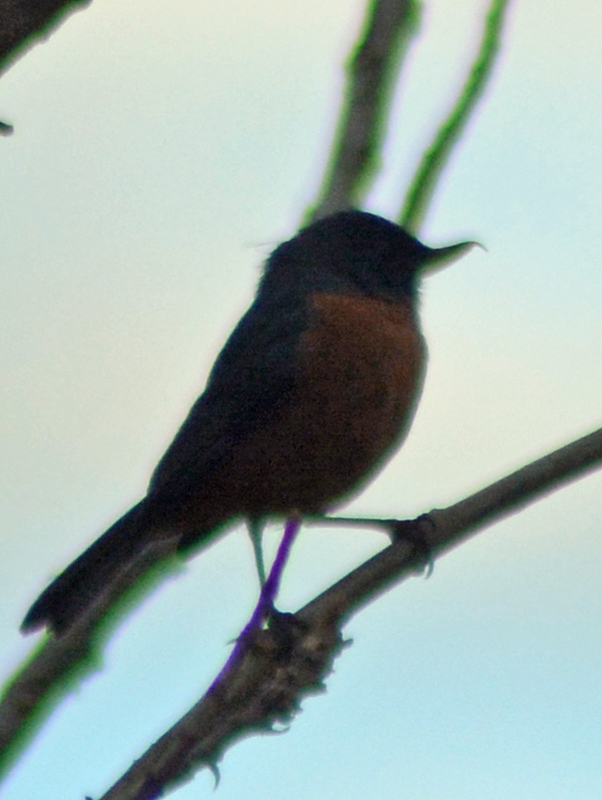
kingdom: Animalia
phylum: Chordata
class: Aves
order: Passeriformes
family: Thraupidae
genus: Diglossa
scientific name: Diglossa baritula
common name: Cinnamon-bellied flowerpiercer
